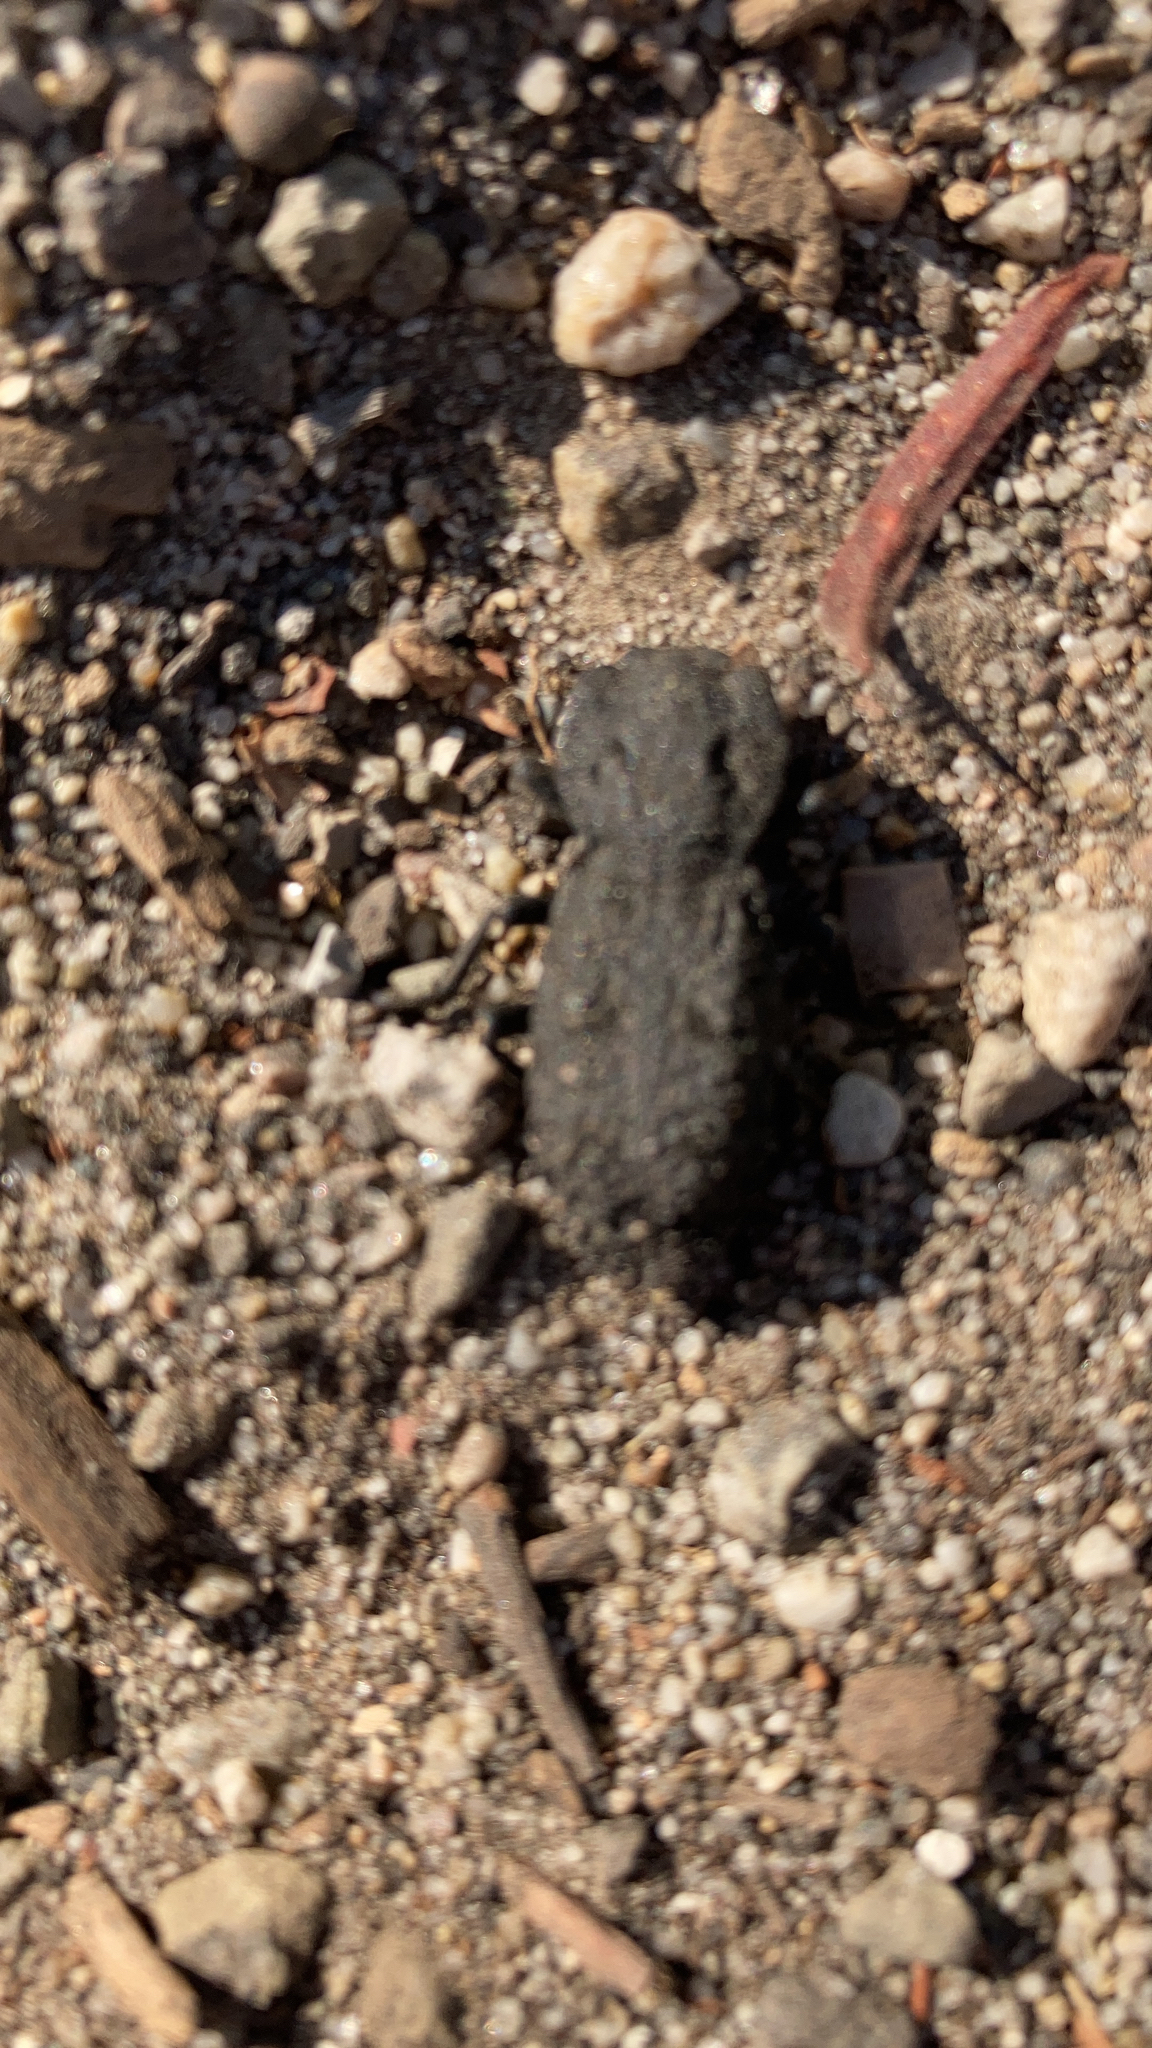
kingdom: Animalia
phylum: Arthropoda
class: Insecta
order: Coleoptera
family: Zopheridae
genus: Phloeodes
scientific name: Phloeodes diabolicus
